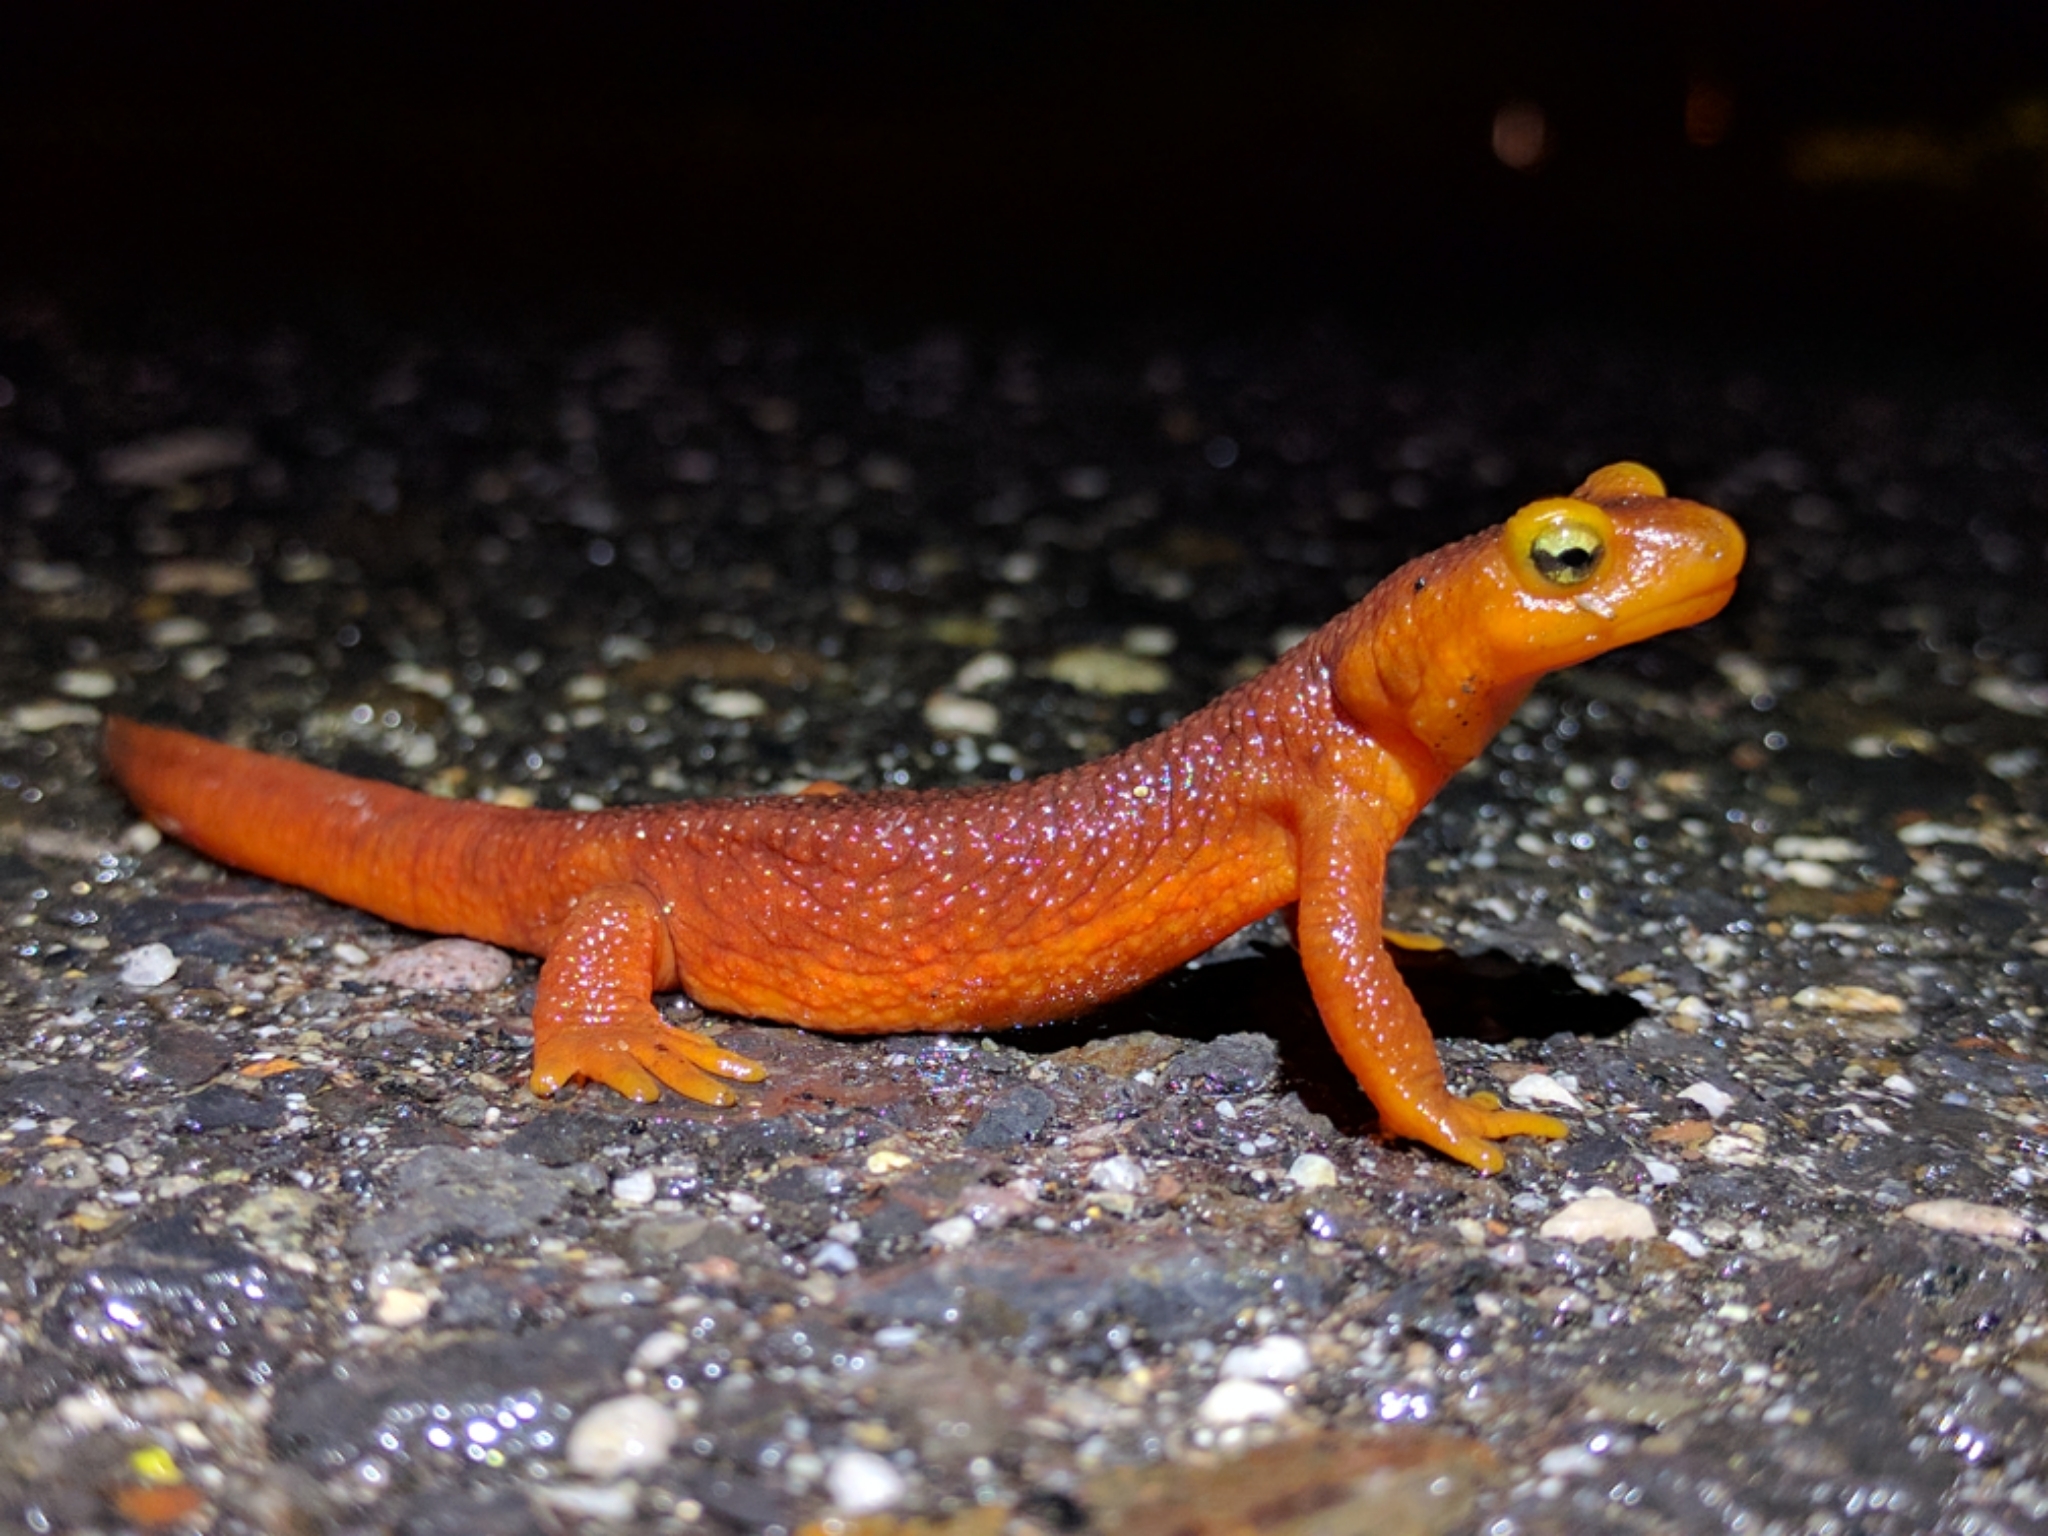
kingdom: Animalia
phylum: Chordata
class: Amphibia
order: Caudata
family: Salamandridae
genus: Taricha
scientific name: Taricha sierrae
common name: Sierra newt
